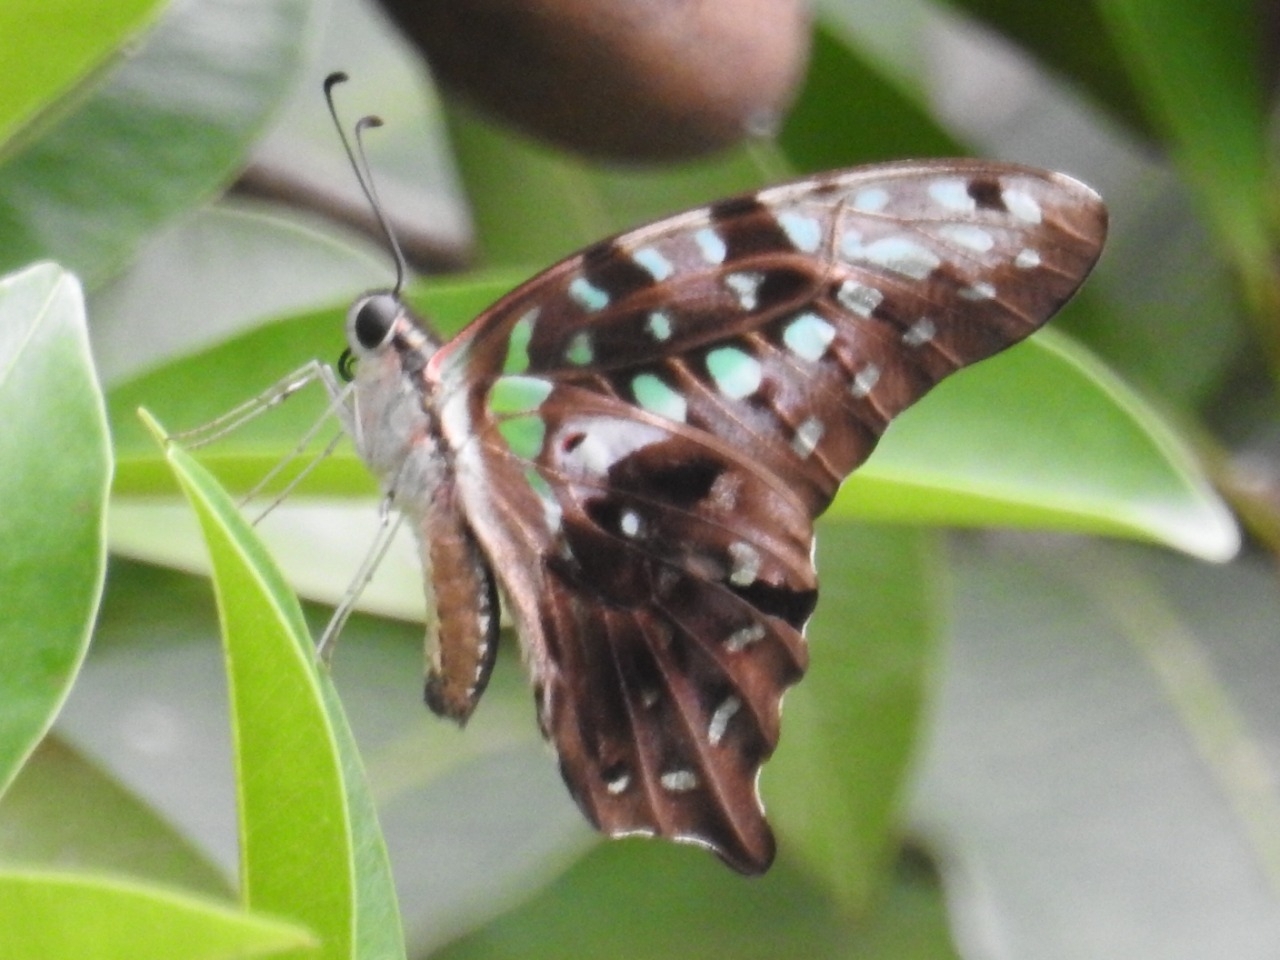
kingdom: Animalia
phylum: Arthropoda
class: Insecta
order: Lepidoptera
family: Papilionidae
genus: Graphium
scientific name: Graphium agamemnon
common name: Tailed jay
